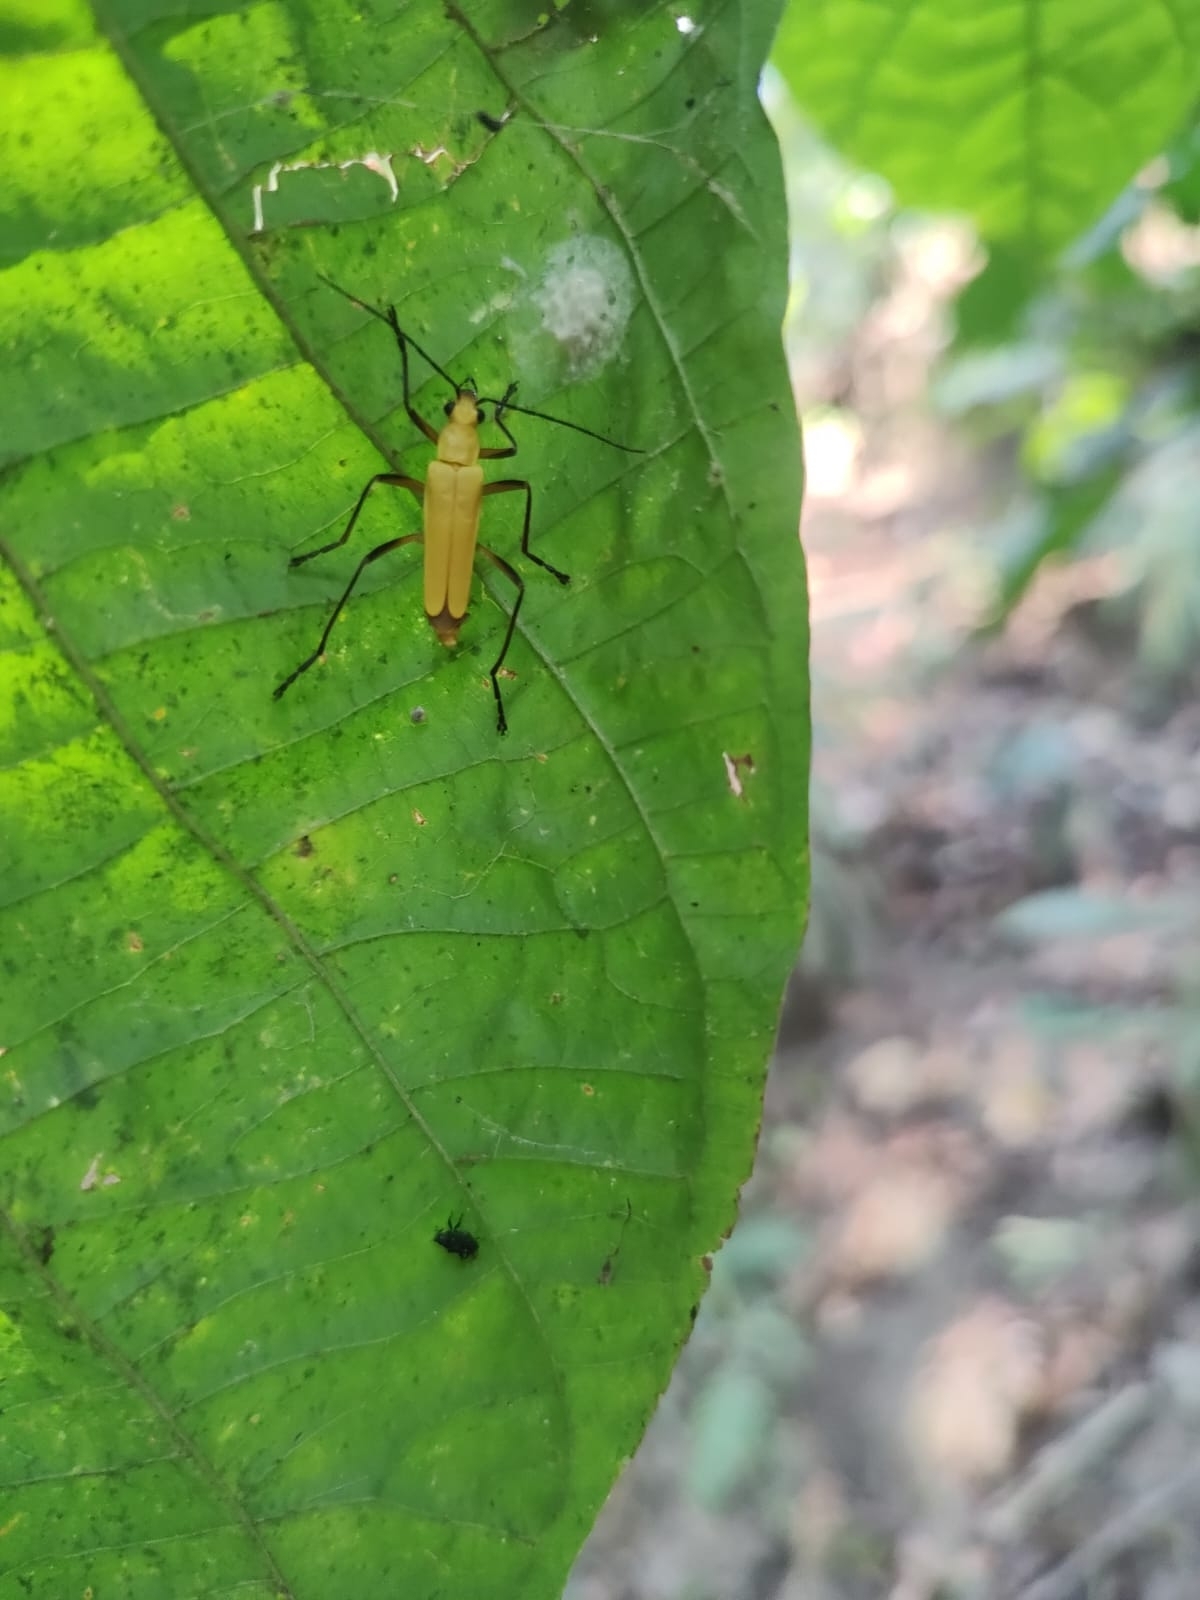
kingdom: Animalia
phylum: Arthropoda
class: Insecta
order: Coleoptera
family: Cantharidae
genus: Chauliognathus
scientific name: Chauliognathus sulphureus
